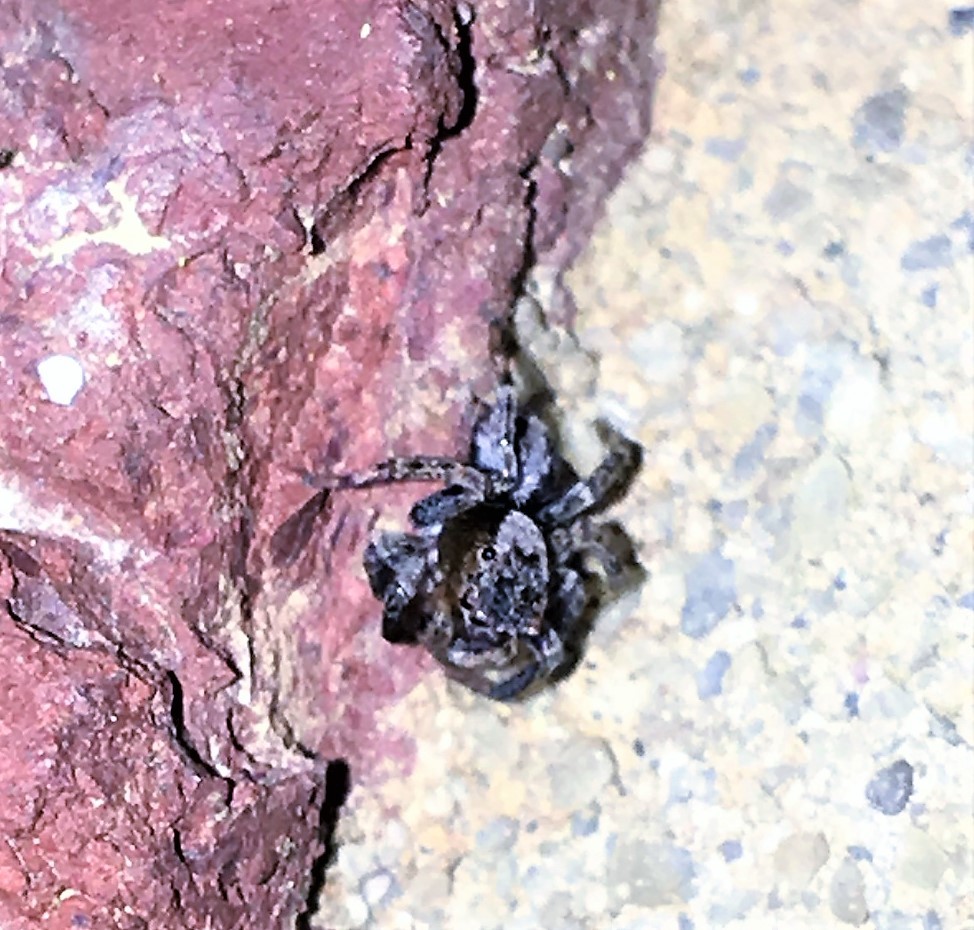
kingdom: Animalia
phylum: Arthropoda
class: Arachnida
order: Araneae
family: Salticidae
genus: Naphrys
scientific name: Naphrys pulex
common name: Flea jumping spider
